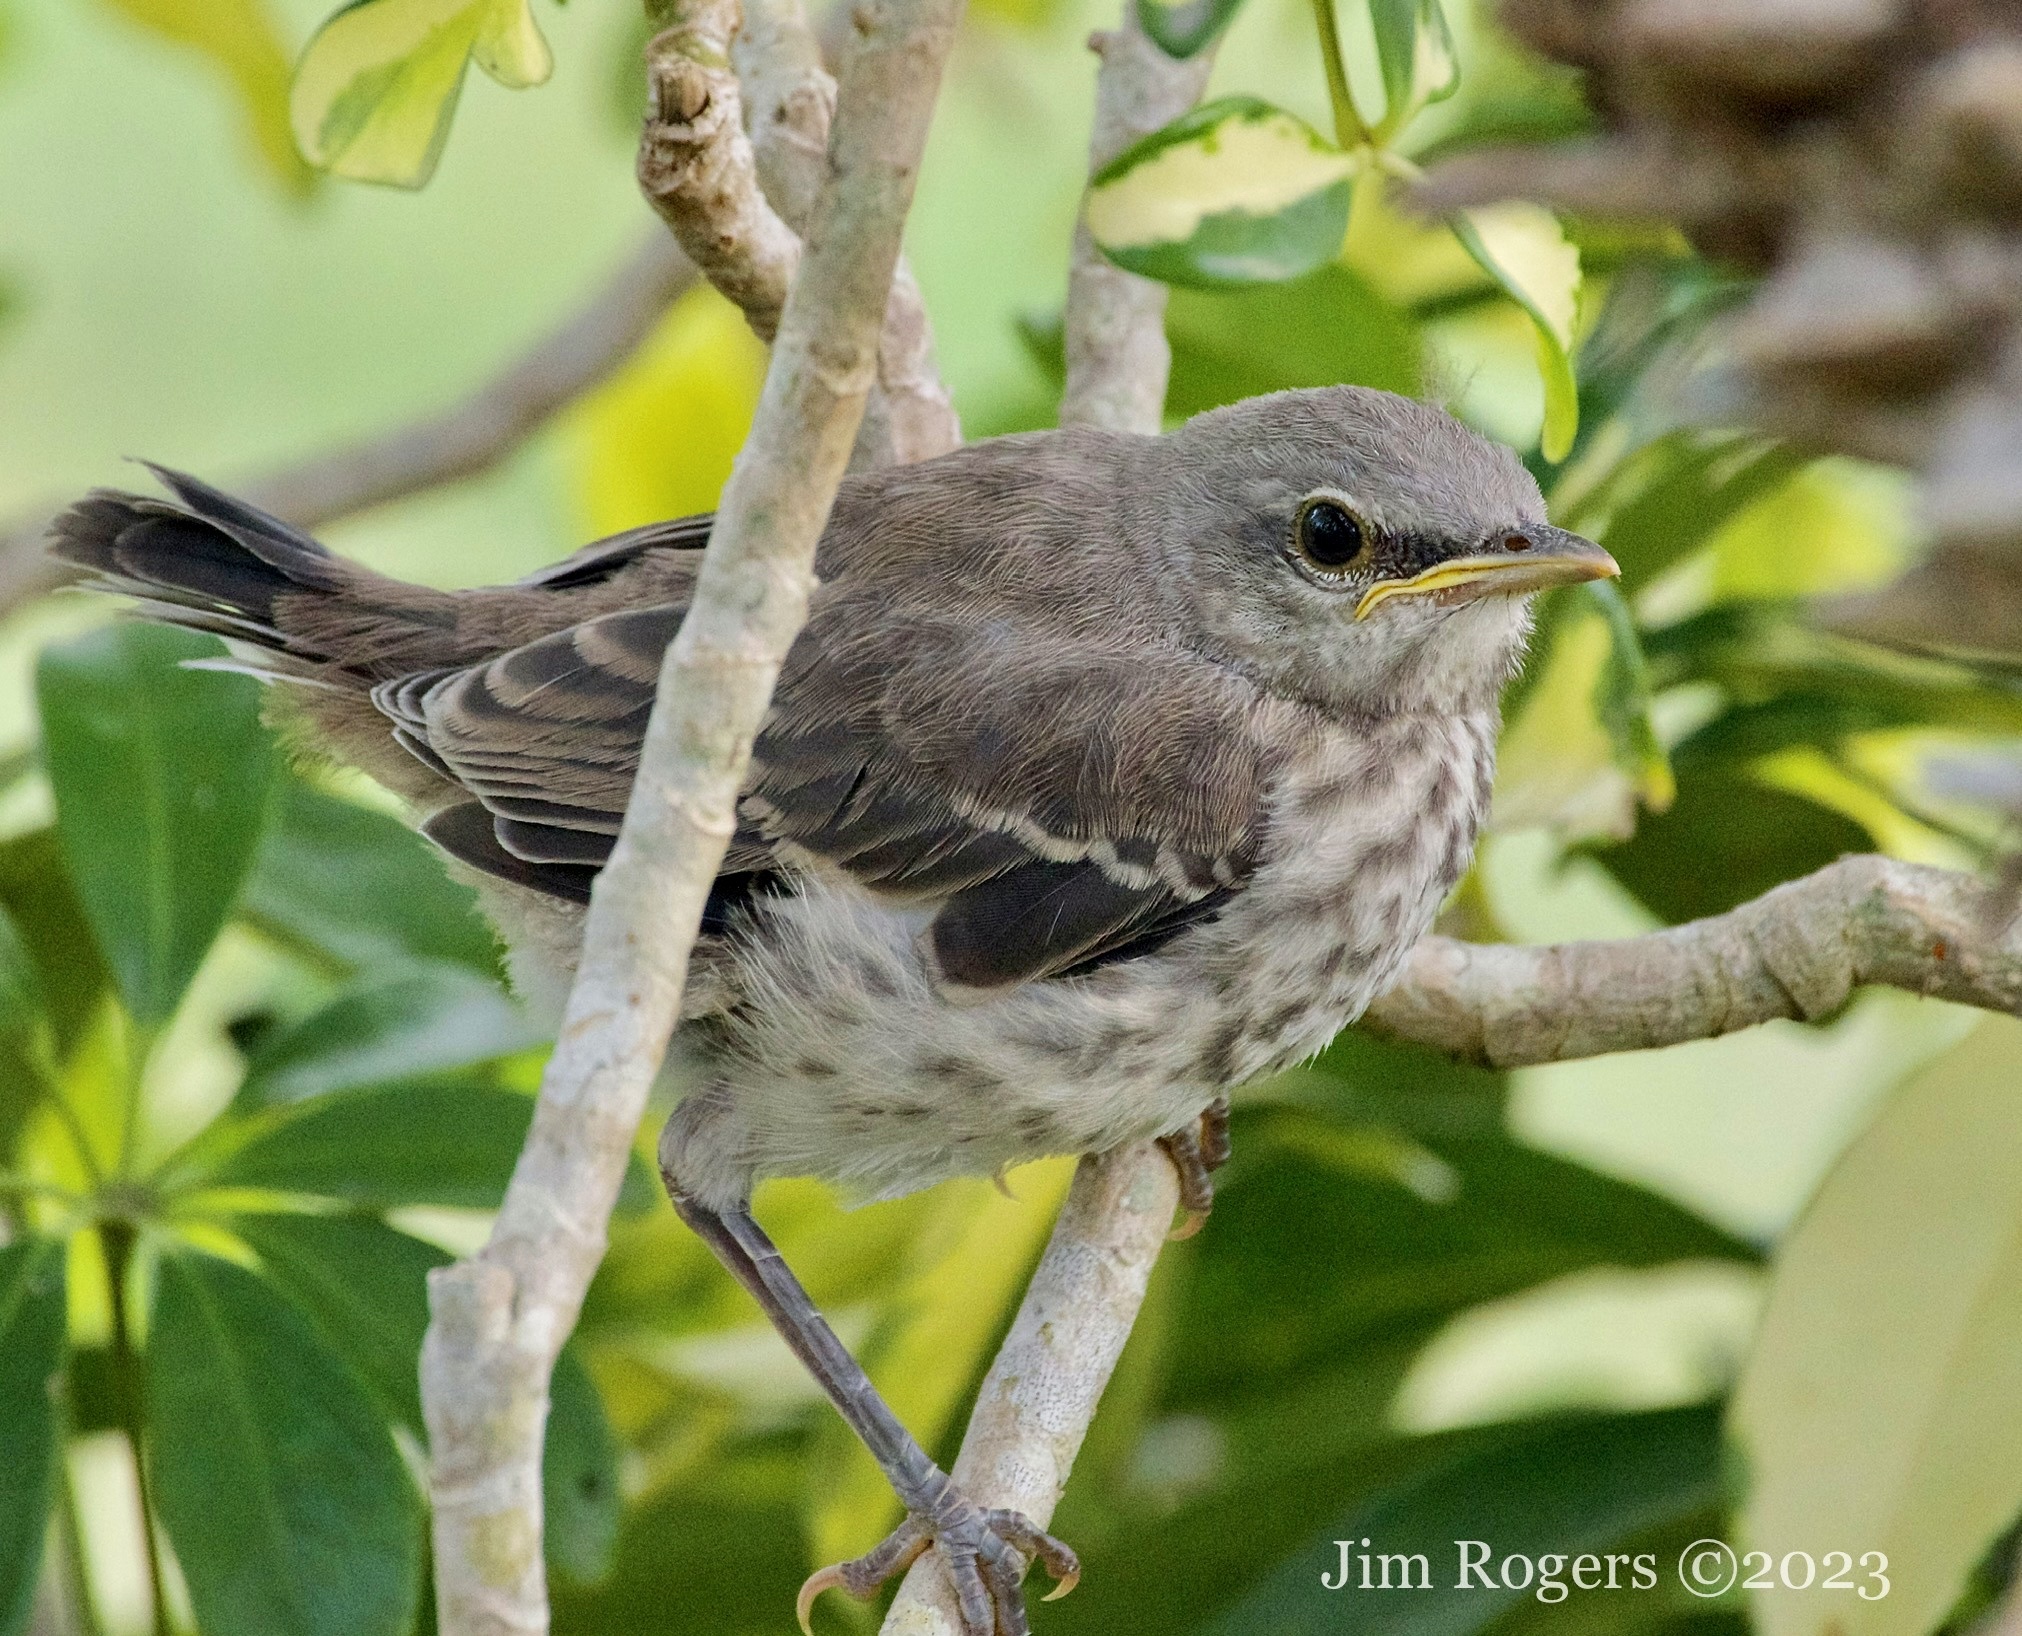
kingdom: Animalia
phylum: Chordata
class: Aves
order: Passeriformes
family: Mimidae
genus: Mimus
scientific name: Mimus polyglottos
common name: Northern mockingbird
